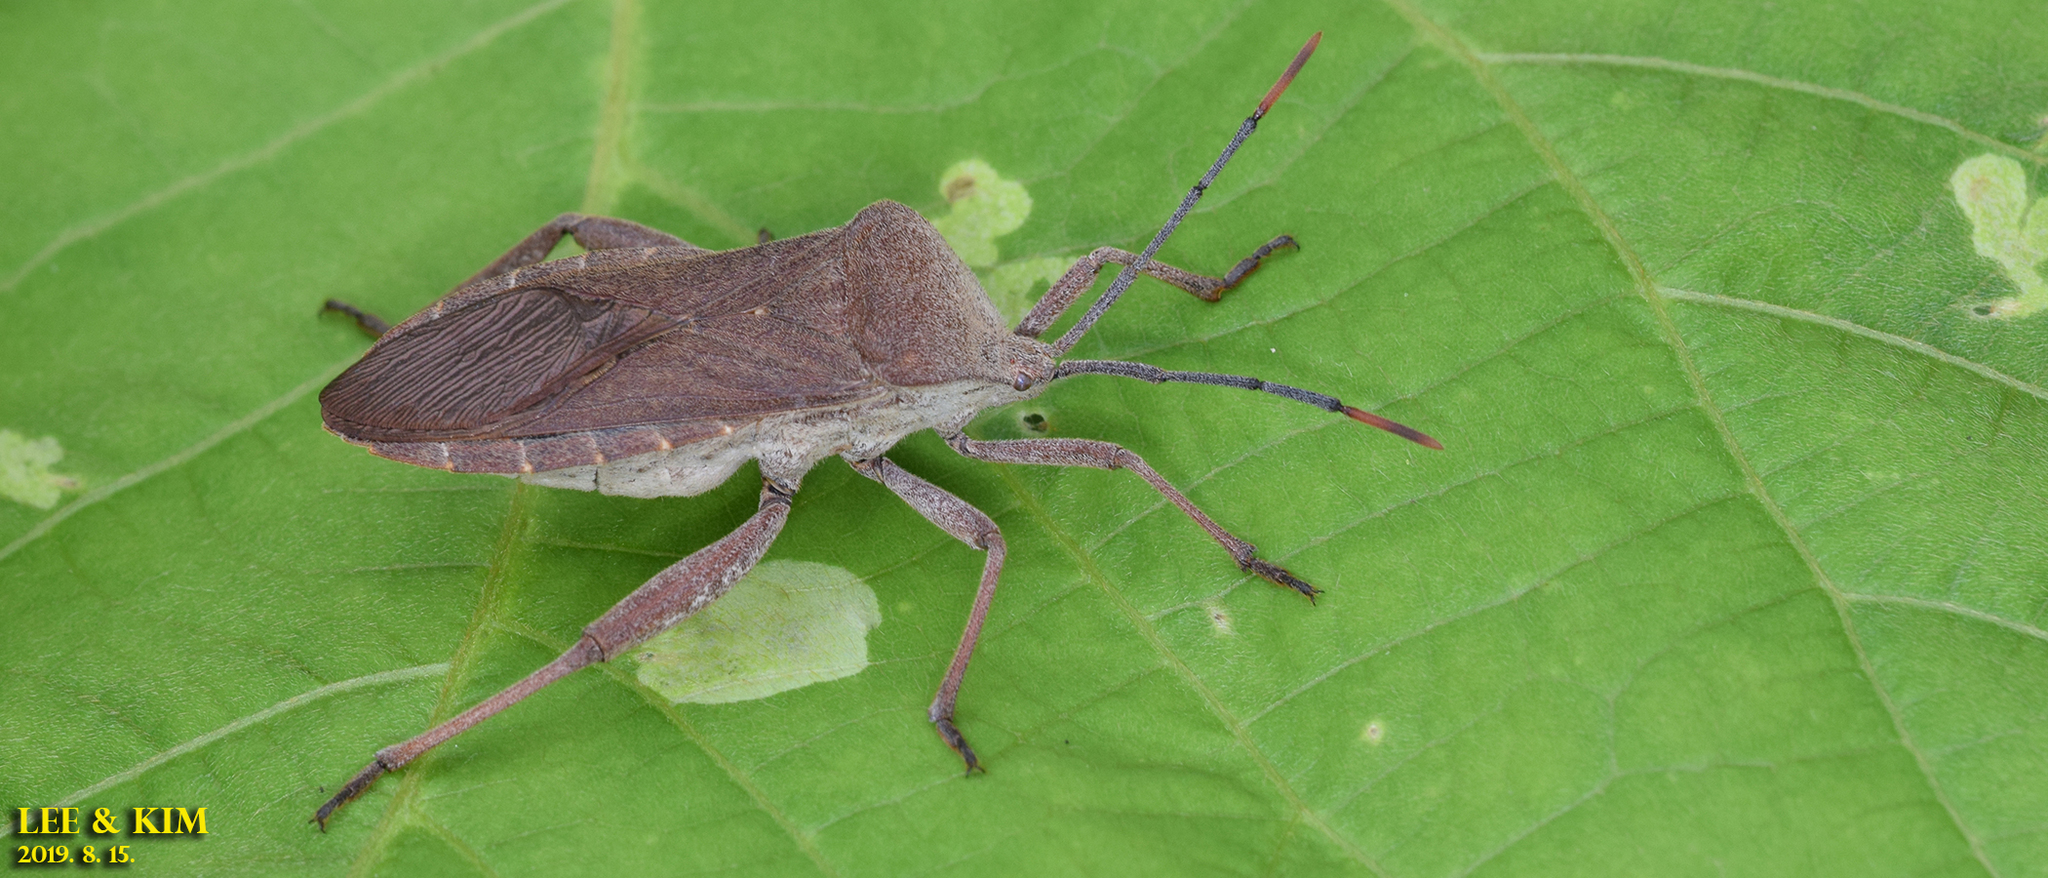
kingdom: Animalia
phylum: Arthropoda
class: Insecta
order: Hemiptera
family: Coreidae
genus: Anoplocnemis
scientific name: Anoplocnemis dallasi
